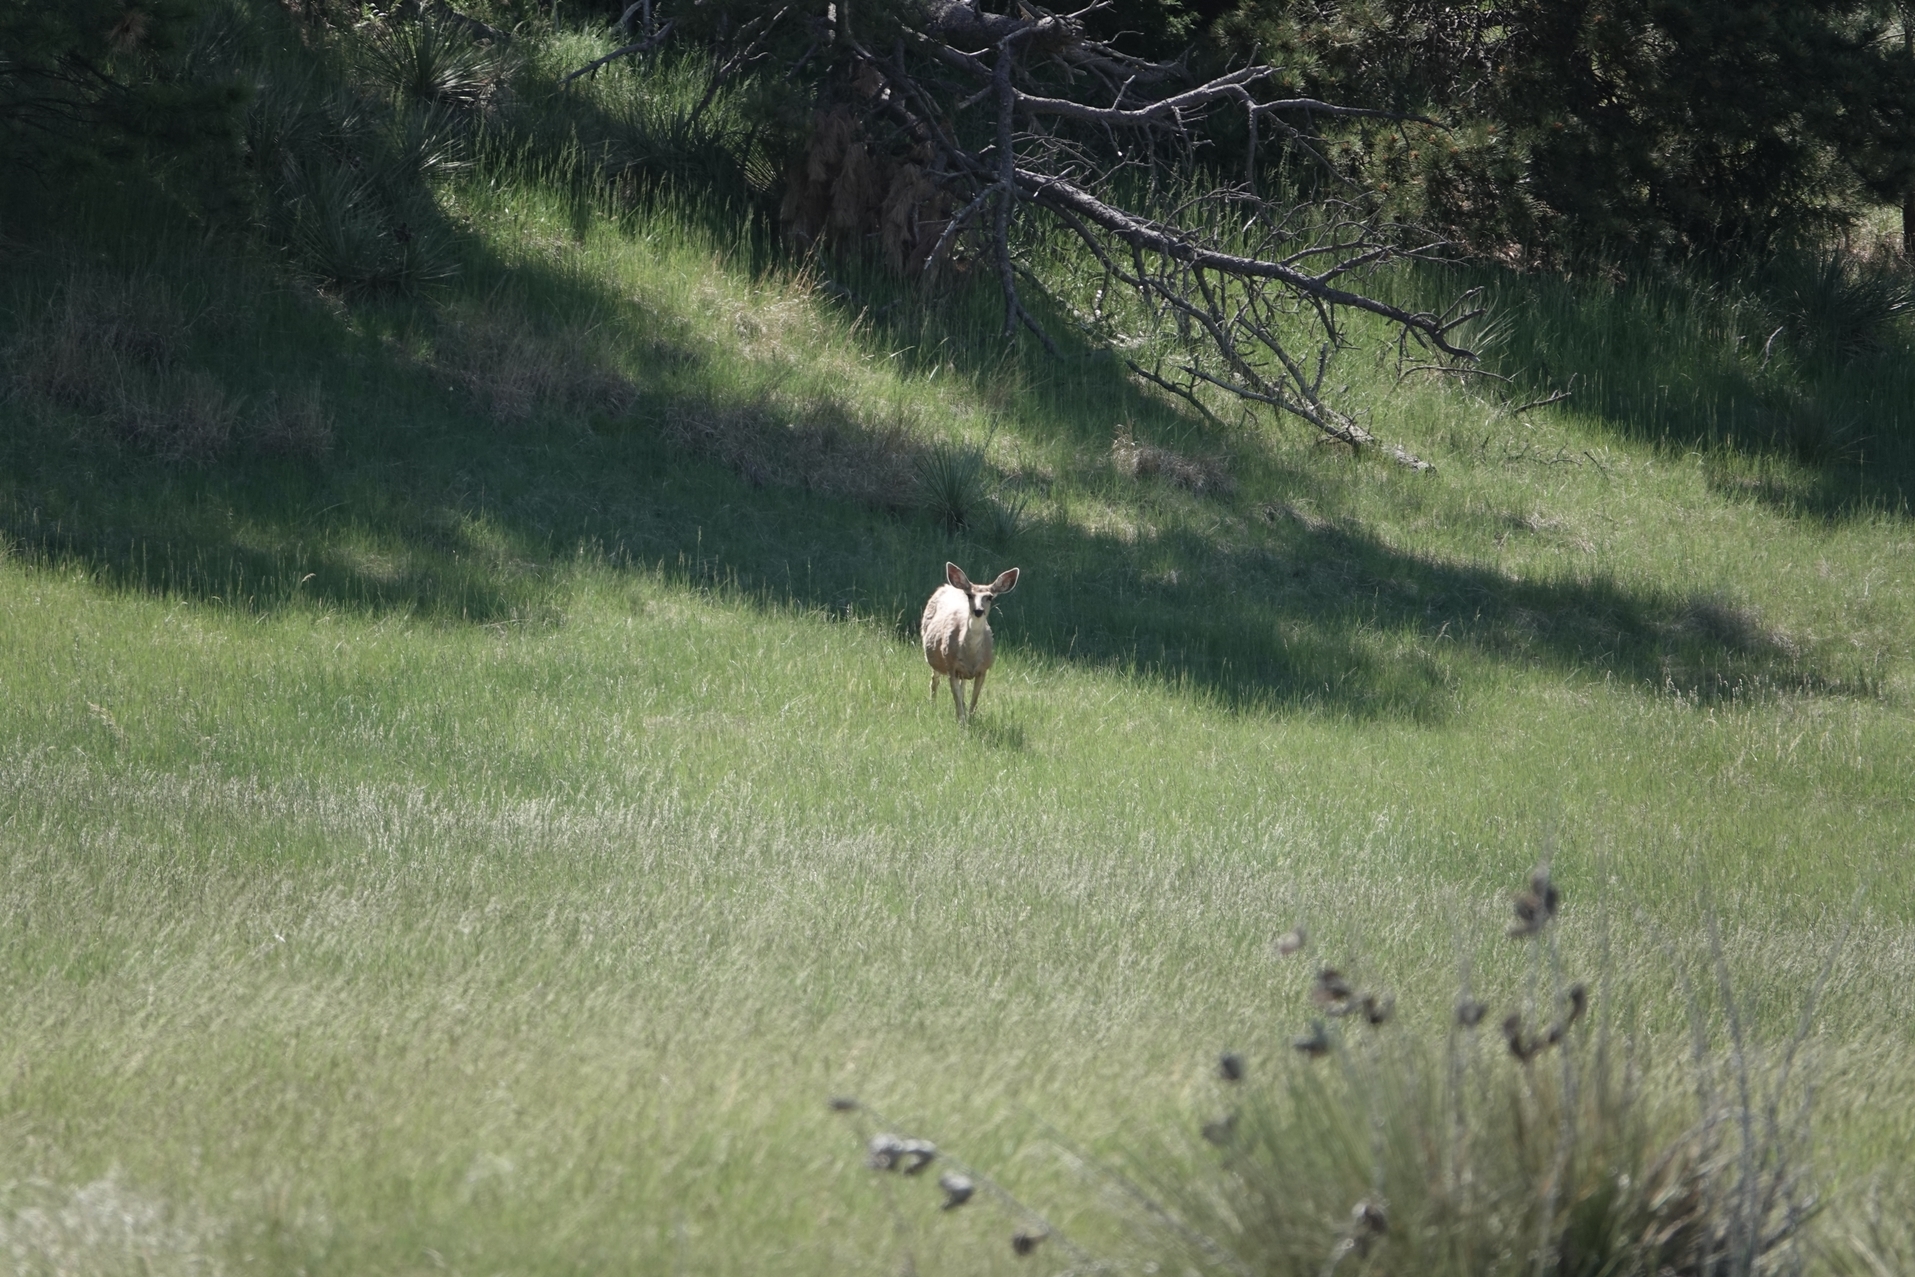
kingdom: Animalia
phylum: Chordata
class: Mammalia
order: Artiodactyla
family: Cervidae
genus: Odocoileus
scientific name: Odocoileus hemionus
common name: Mule deer
